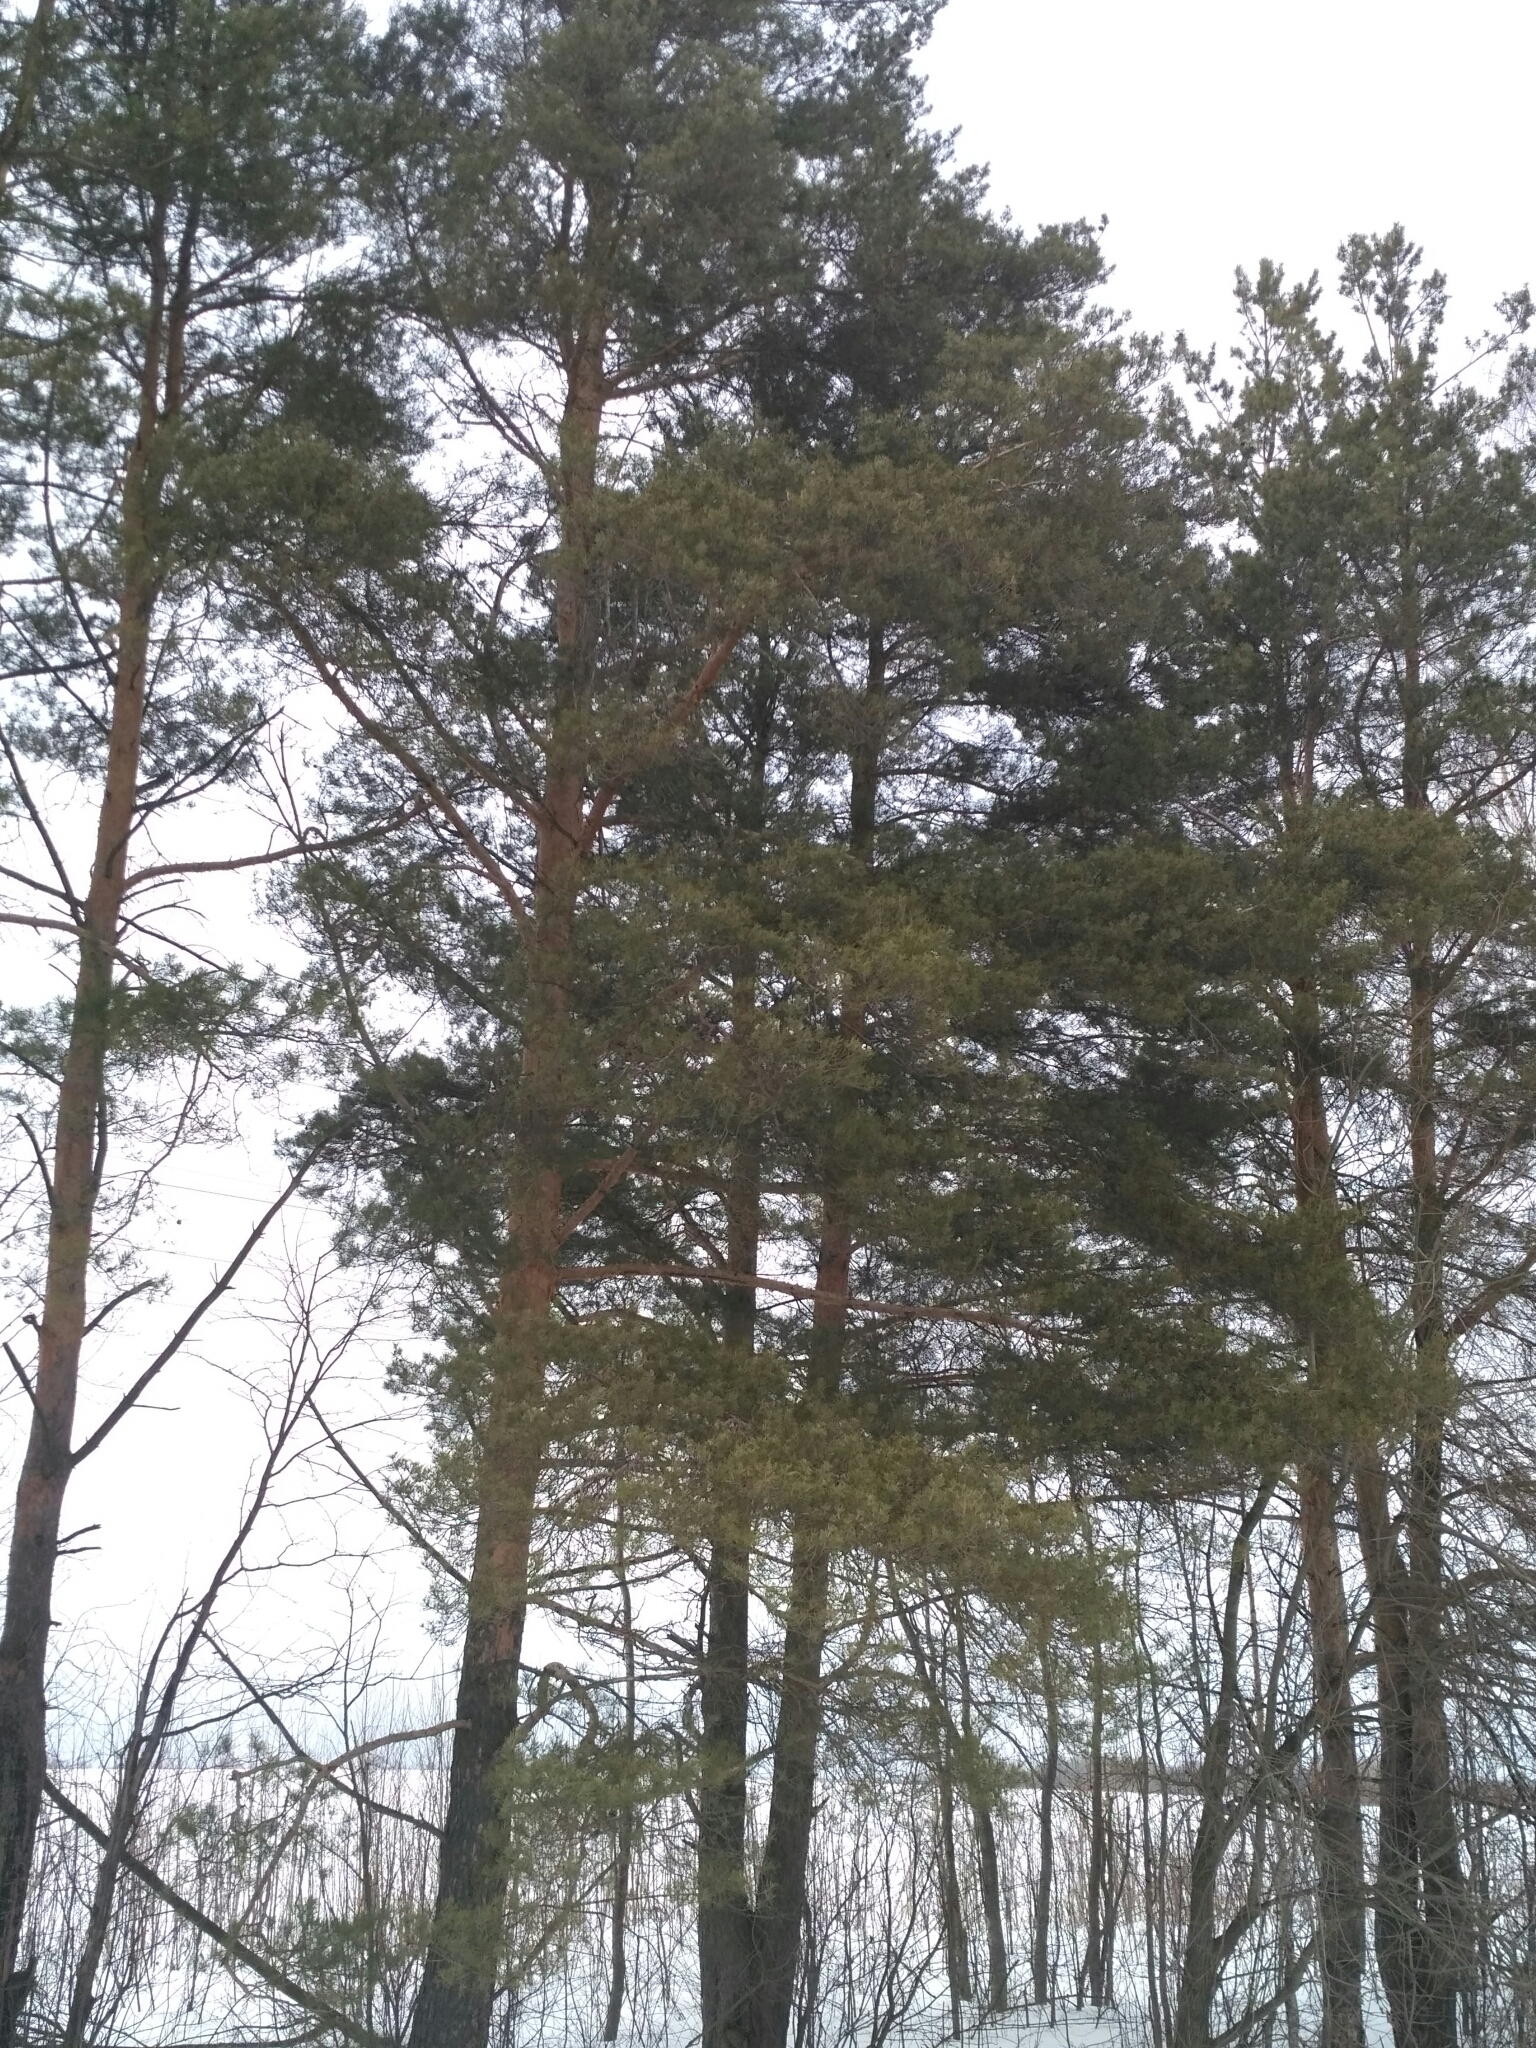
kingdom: Plantae
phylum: Tracheophyta
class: Pinopsida
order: Pinales
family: Pinaceae
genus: Pinus
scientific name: Pinus sylvestris
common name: Scots pine
